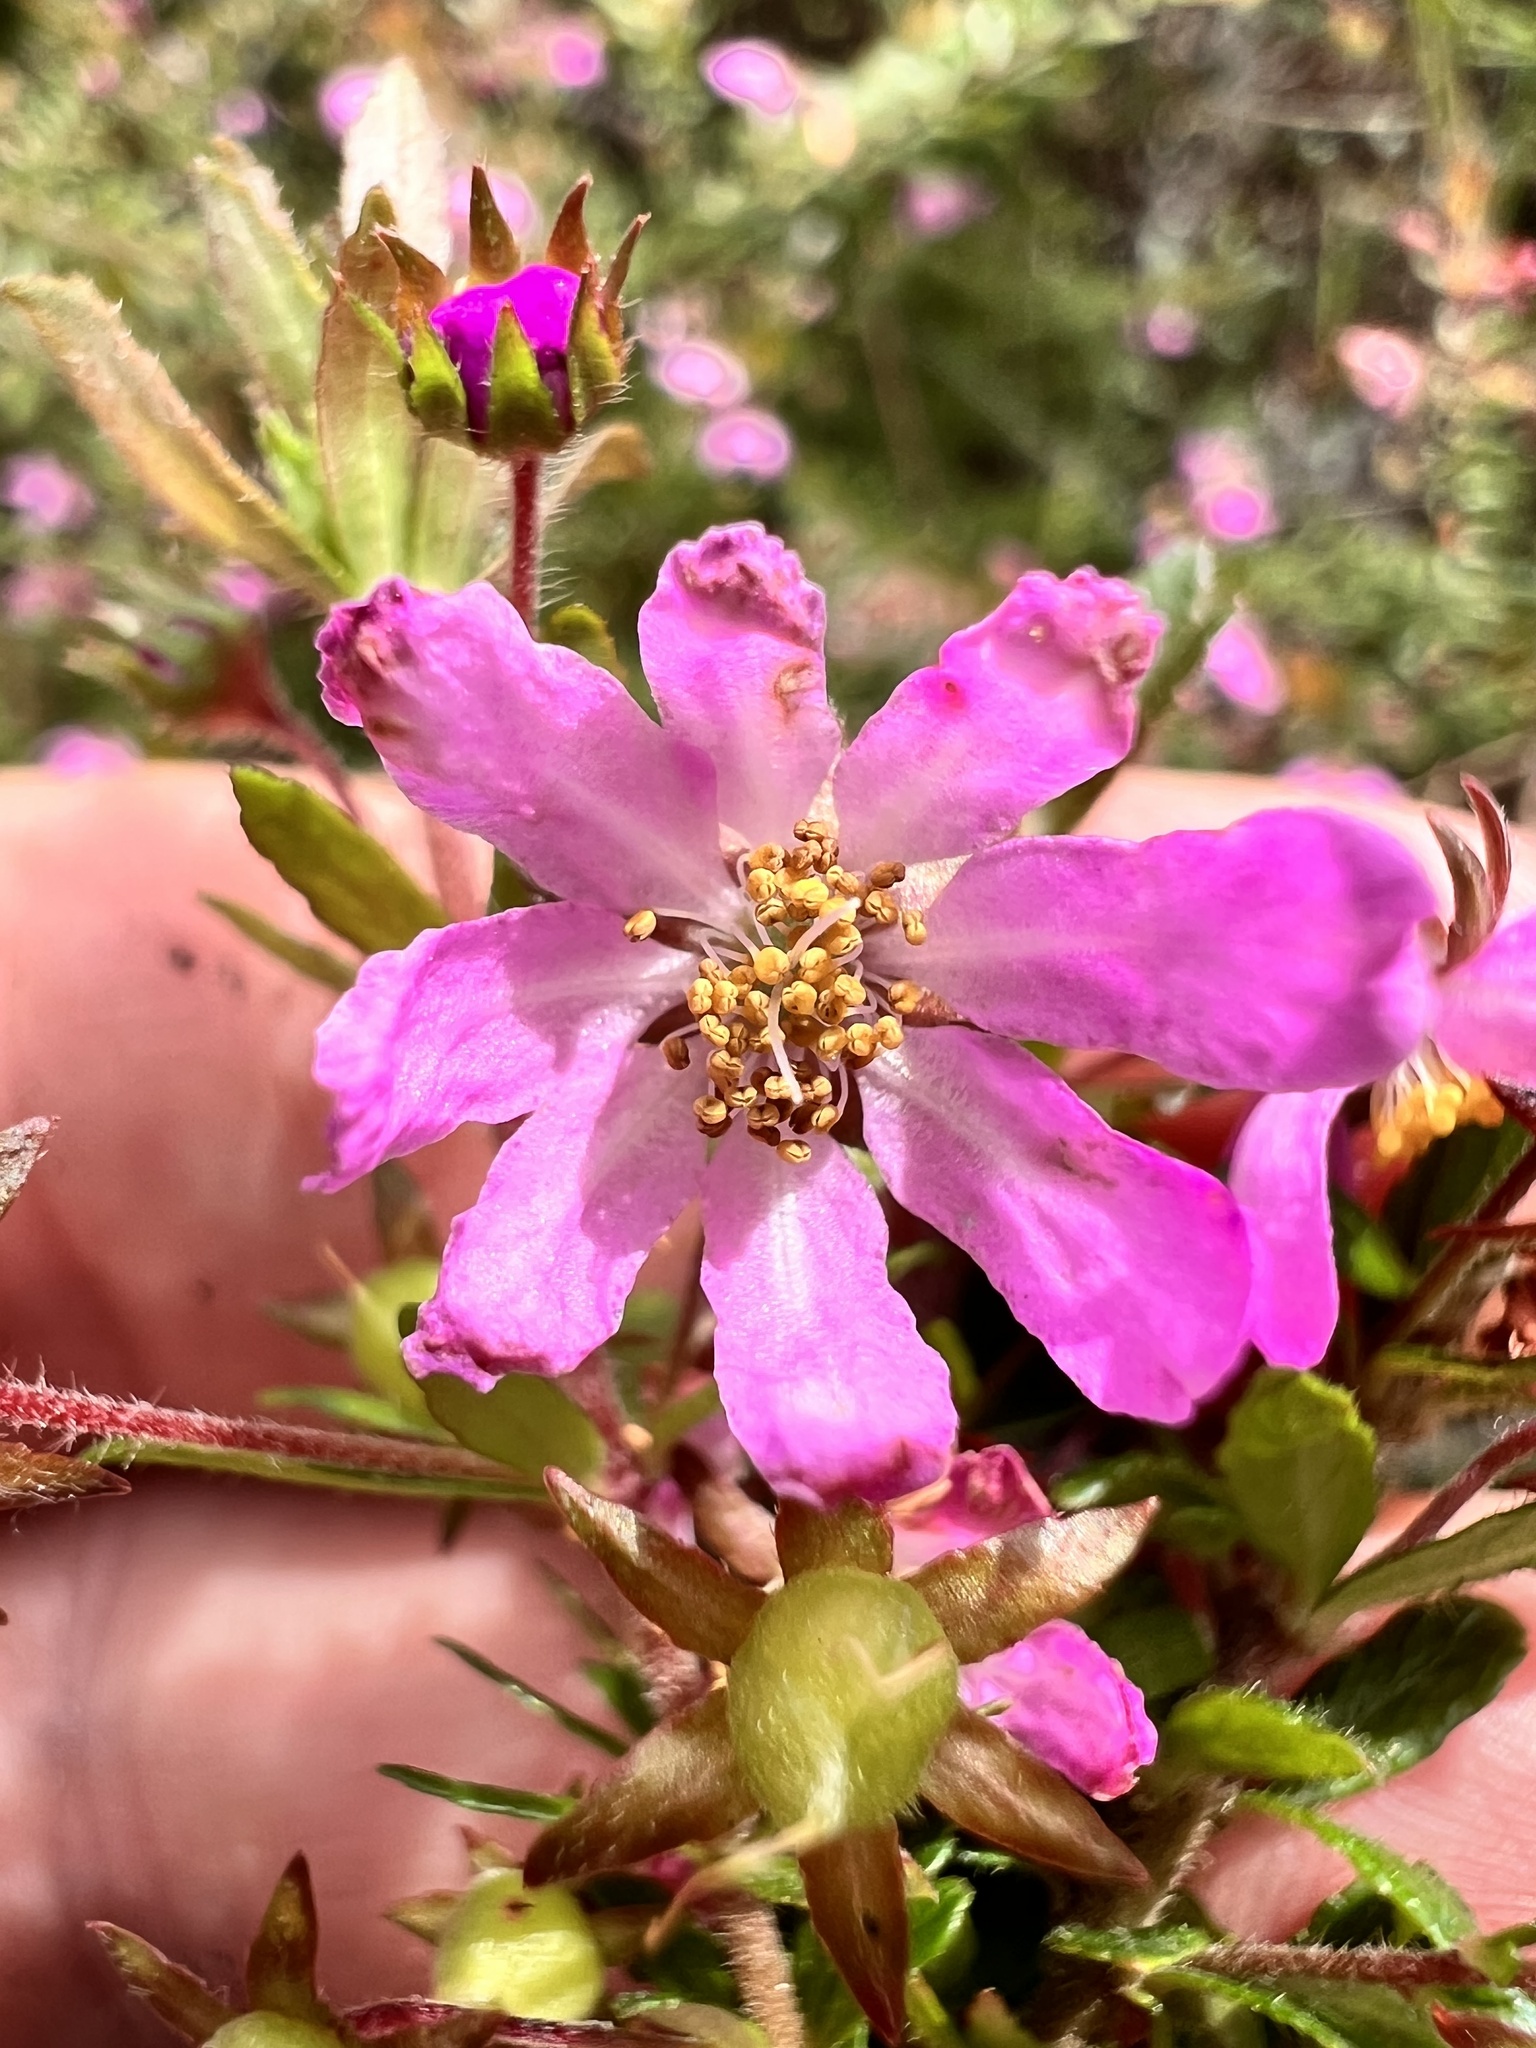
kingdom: Plantae
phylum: Tracheophyta
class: Magnoliopsida
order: Oxalidales
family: Cunoniaceae
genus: Bauera
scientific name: Bauera rubioides
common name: River-rose
